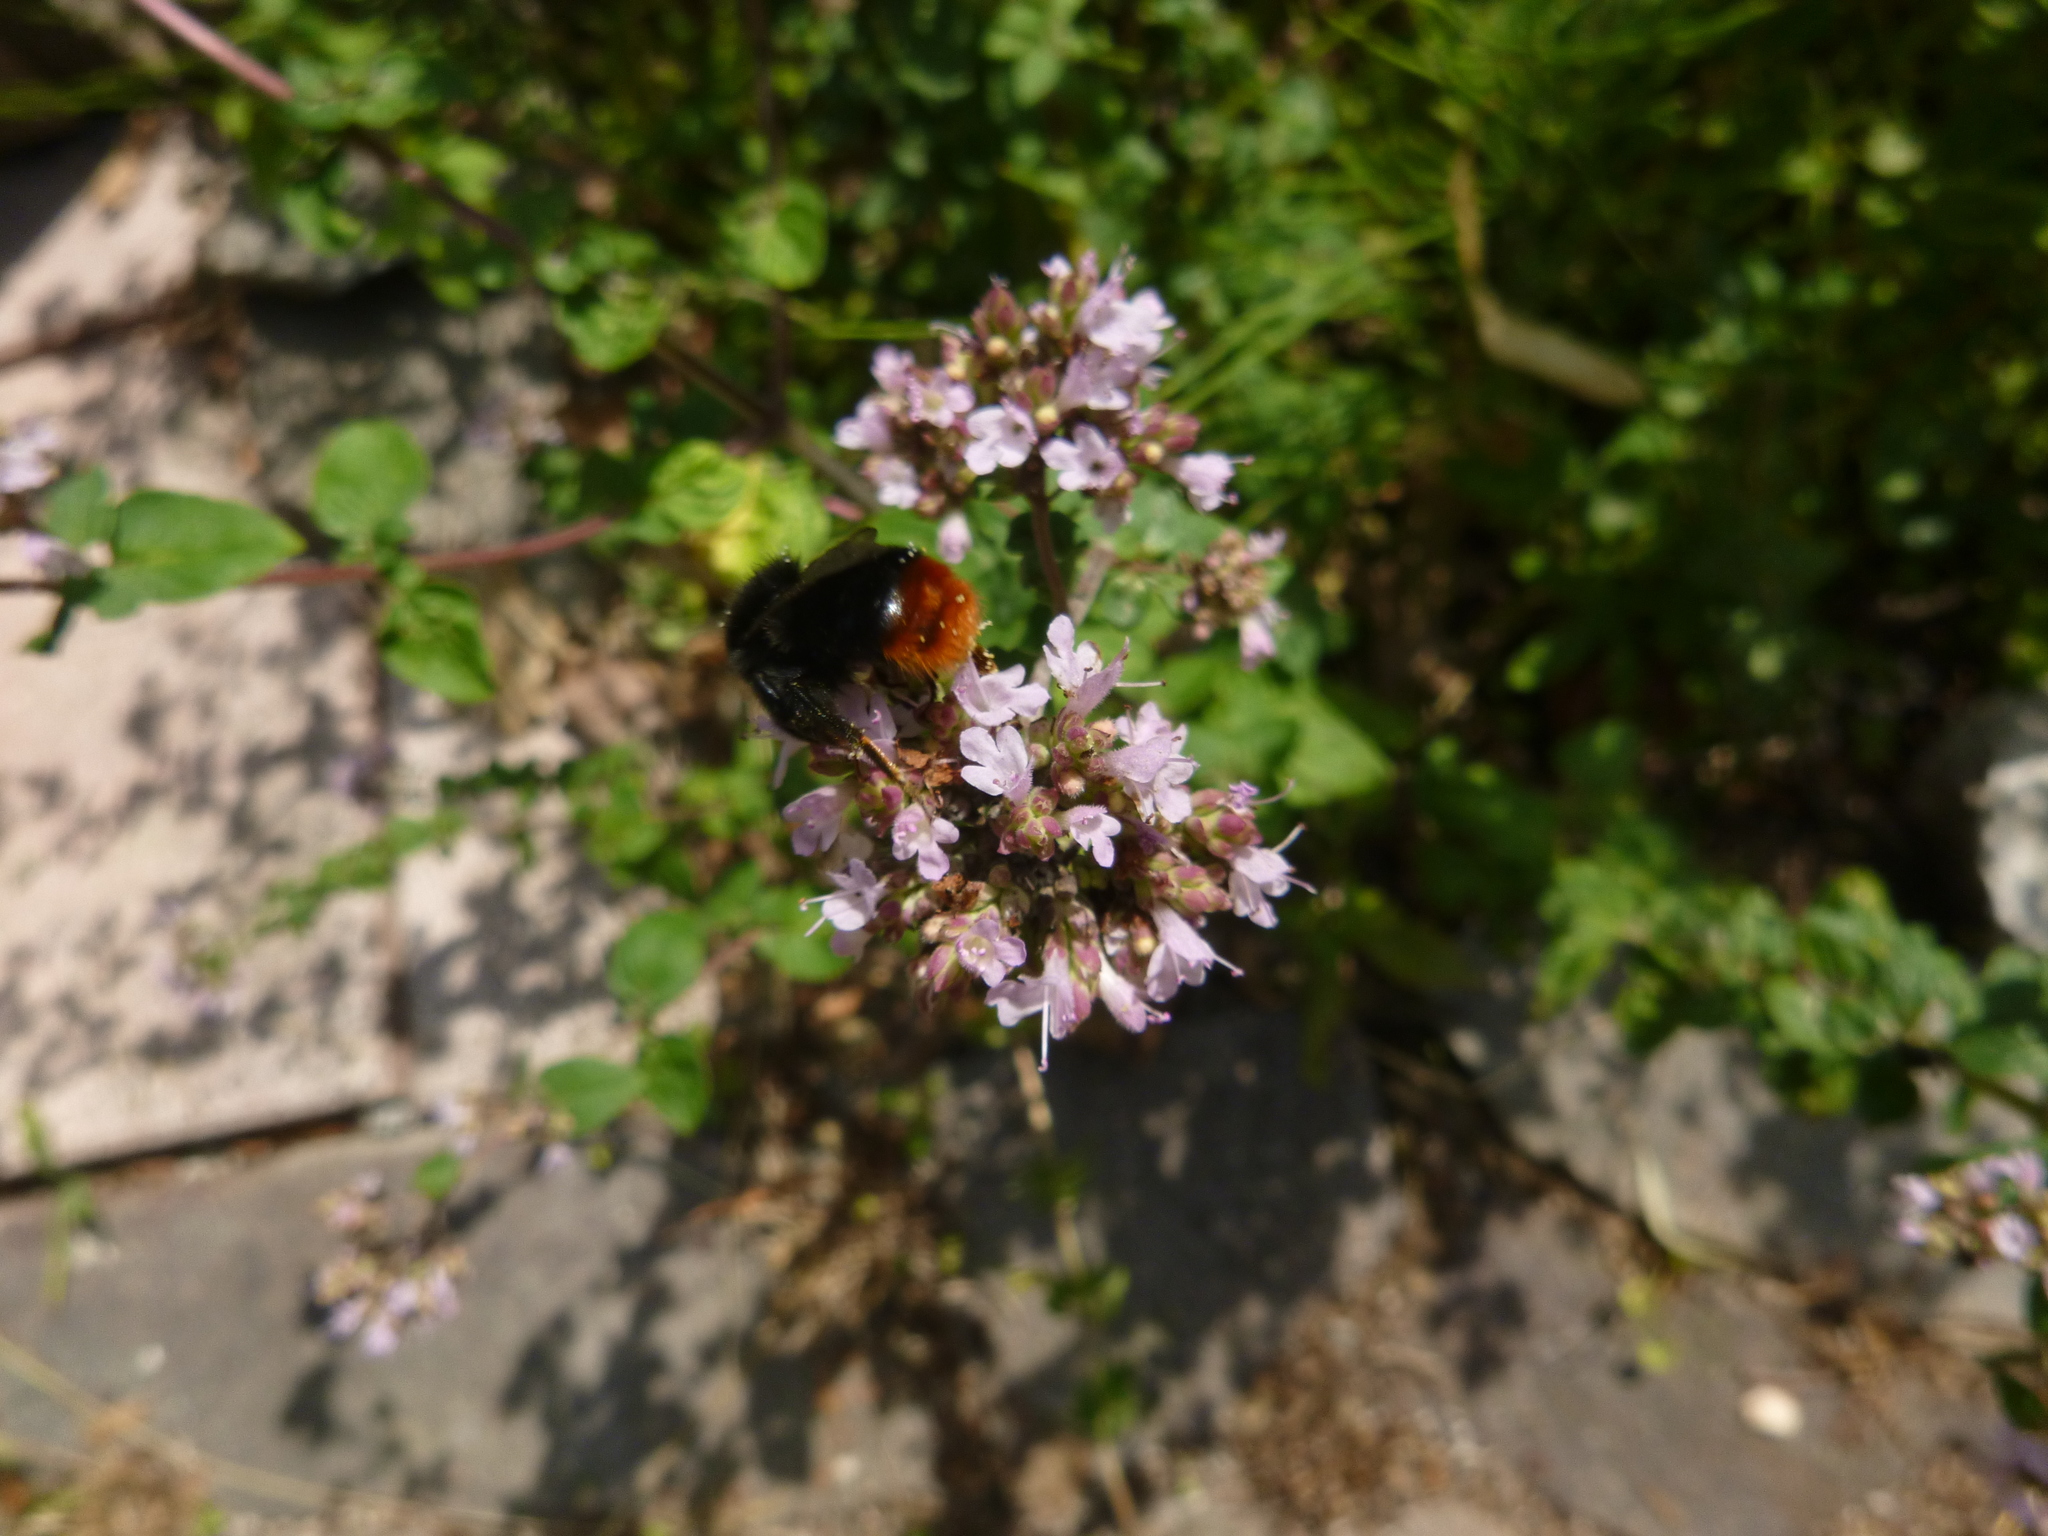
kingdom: Animalia
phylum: Arthropoda
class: Insecta
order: Hymenoptera
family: Apidae
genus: Bombus
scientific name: Bombus lapidarius
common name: Large red-tailed humble-bee
